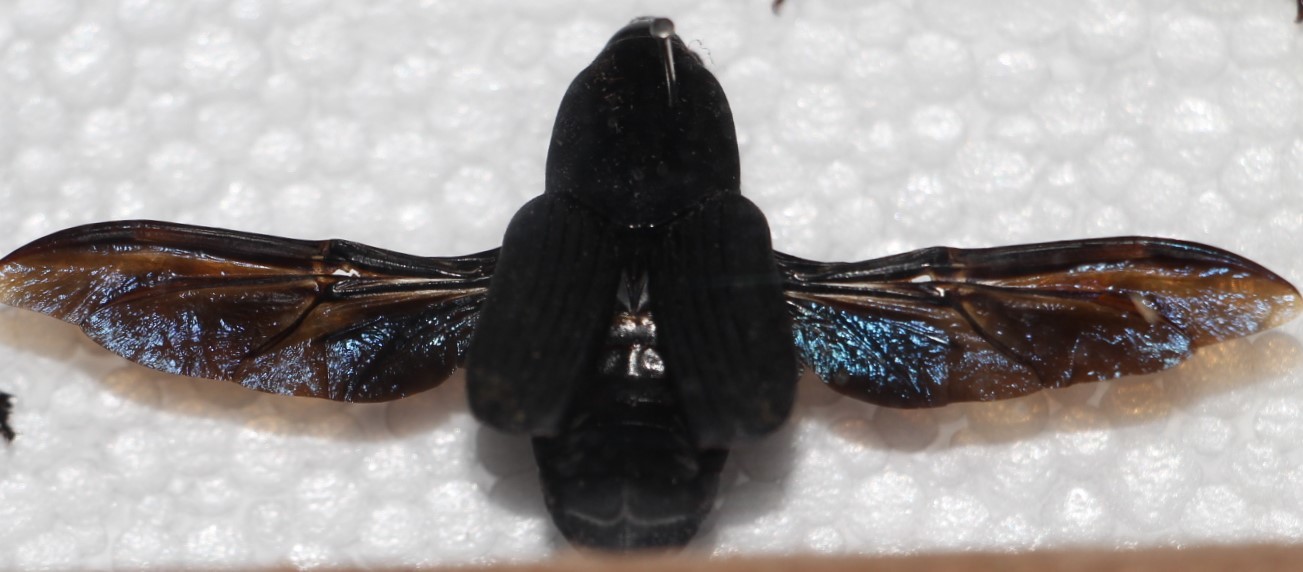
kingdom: Animalia
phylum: Arthropoda
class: Insecta
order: Coleoptera
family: Dryophthoridae
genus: Rhynchophorus
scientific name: Rhynchophorus palmarum
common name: Palm weevil
